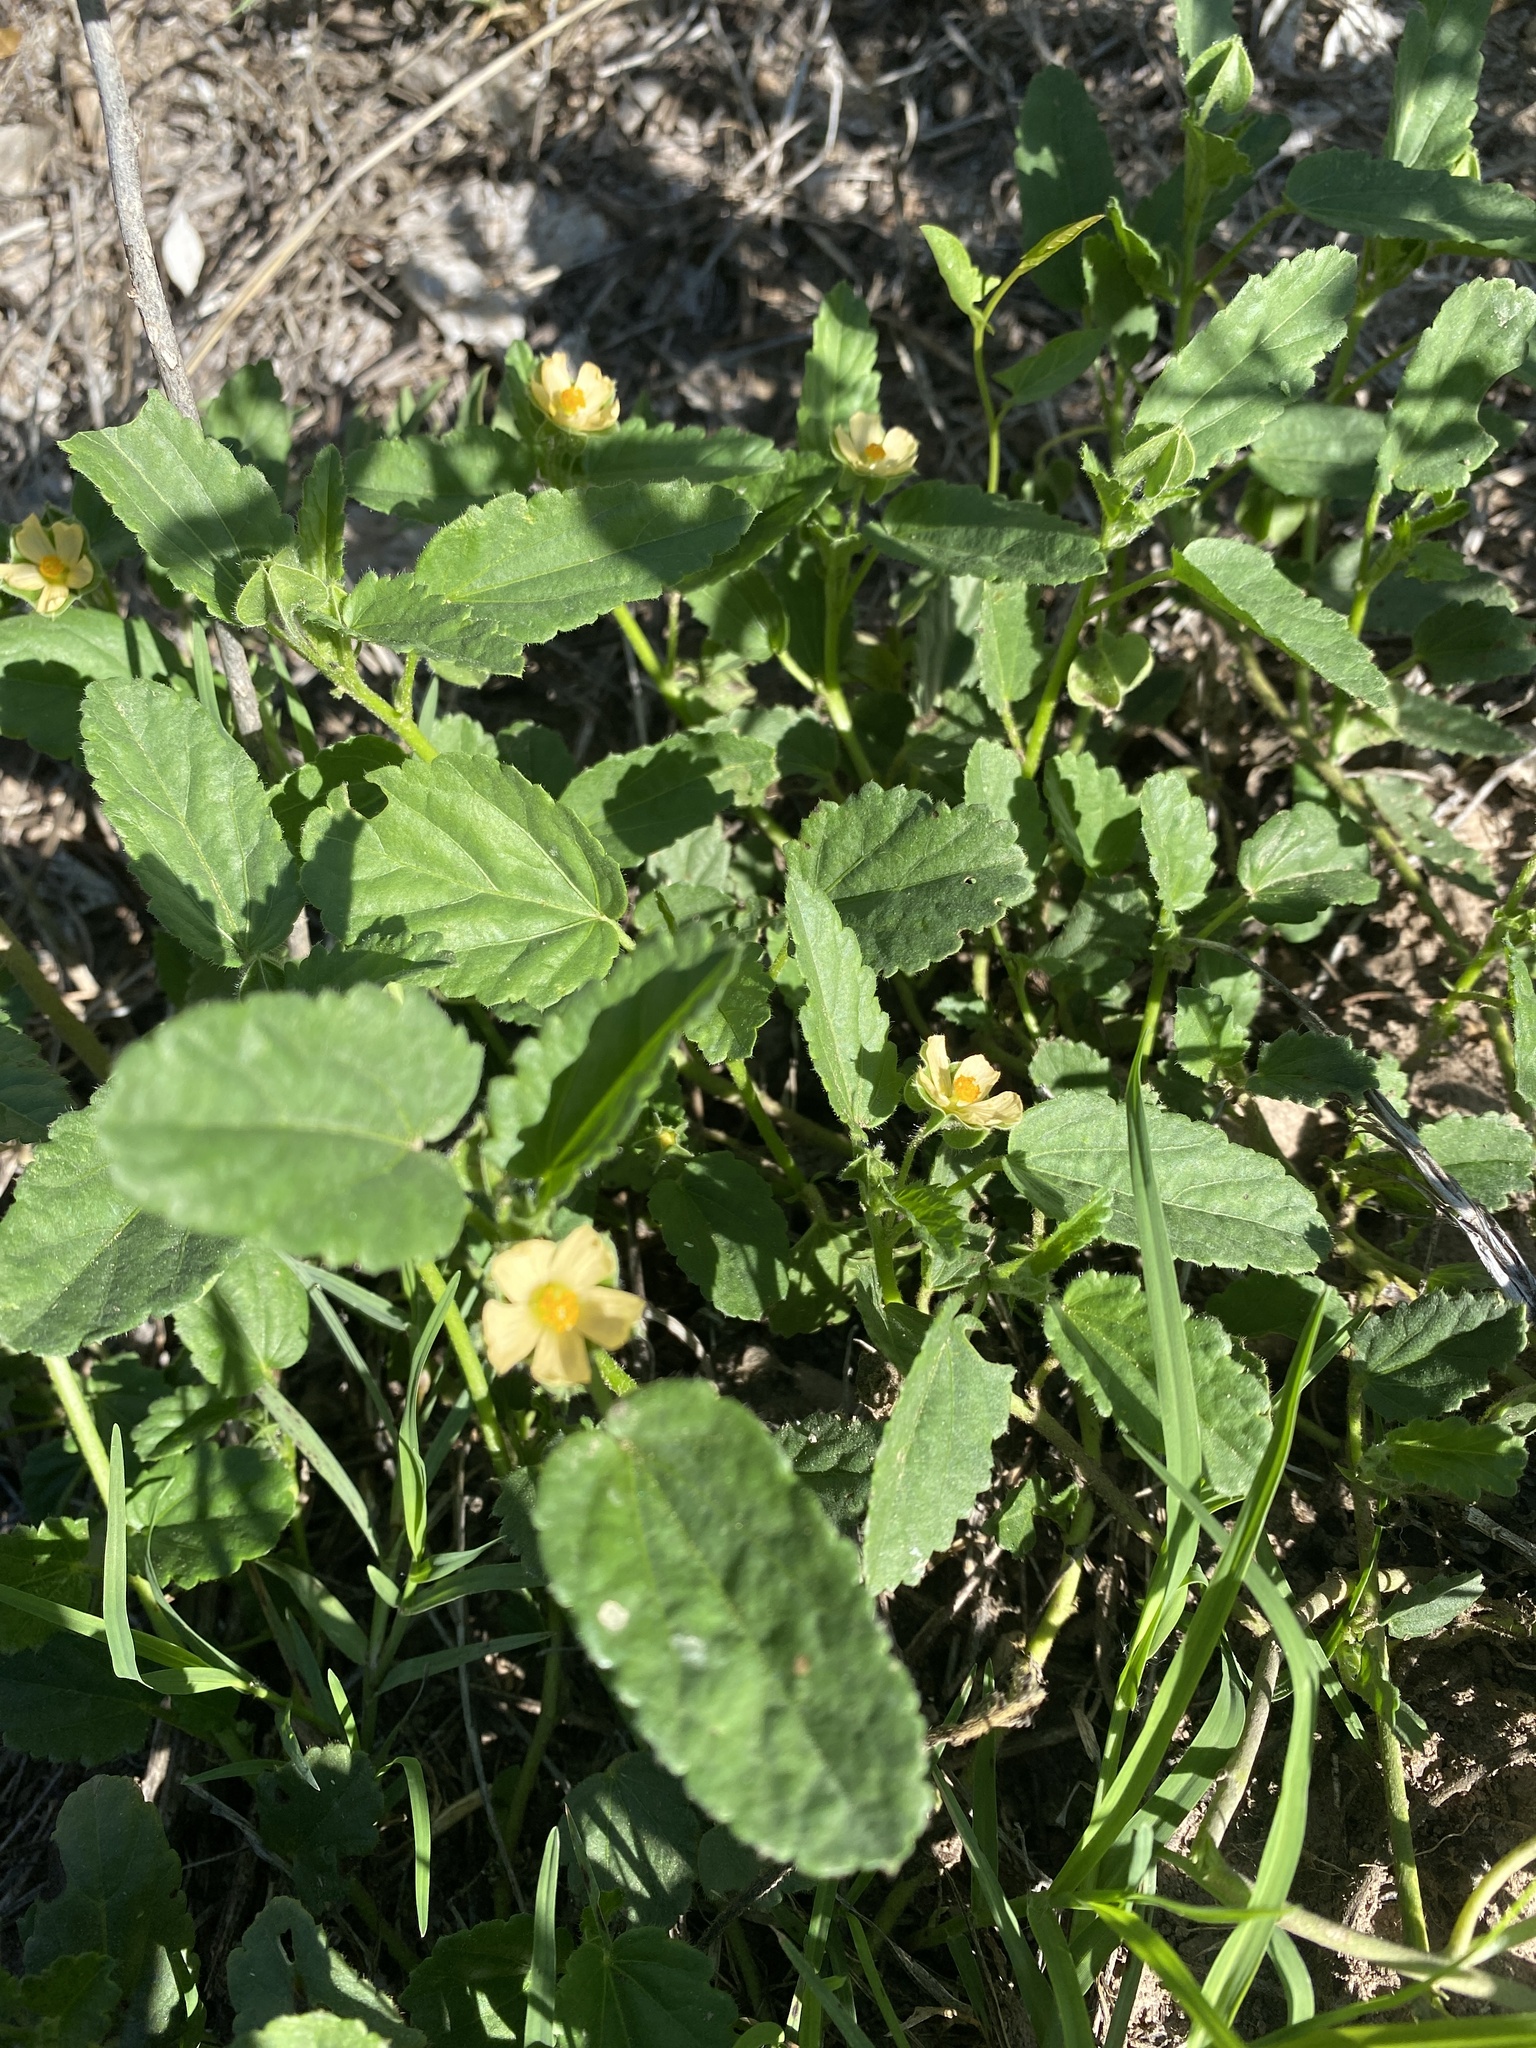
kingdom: Plantae
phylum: Tracheophyta
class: Magnoliopsida
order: Malvales
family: Malvaceae
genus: Sida
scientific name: Sida abutilifolia
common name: Spreading fanpetals
